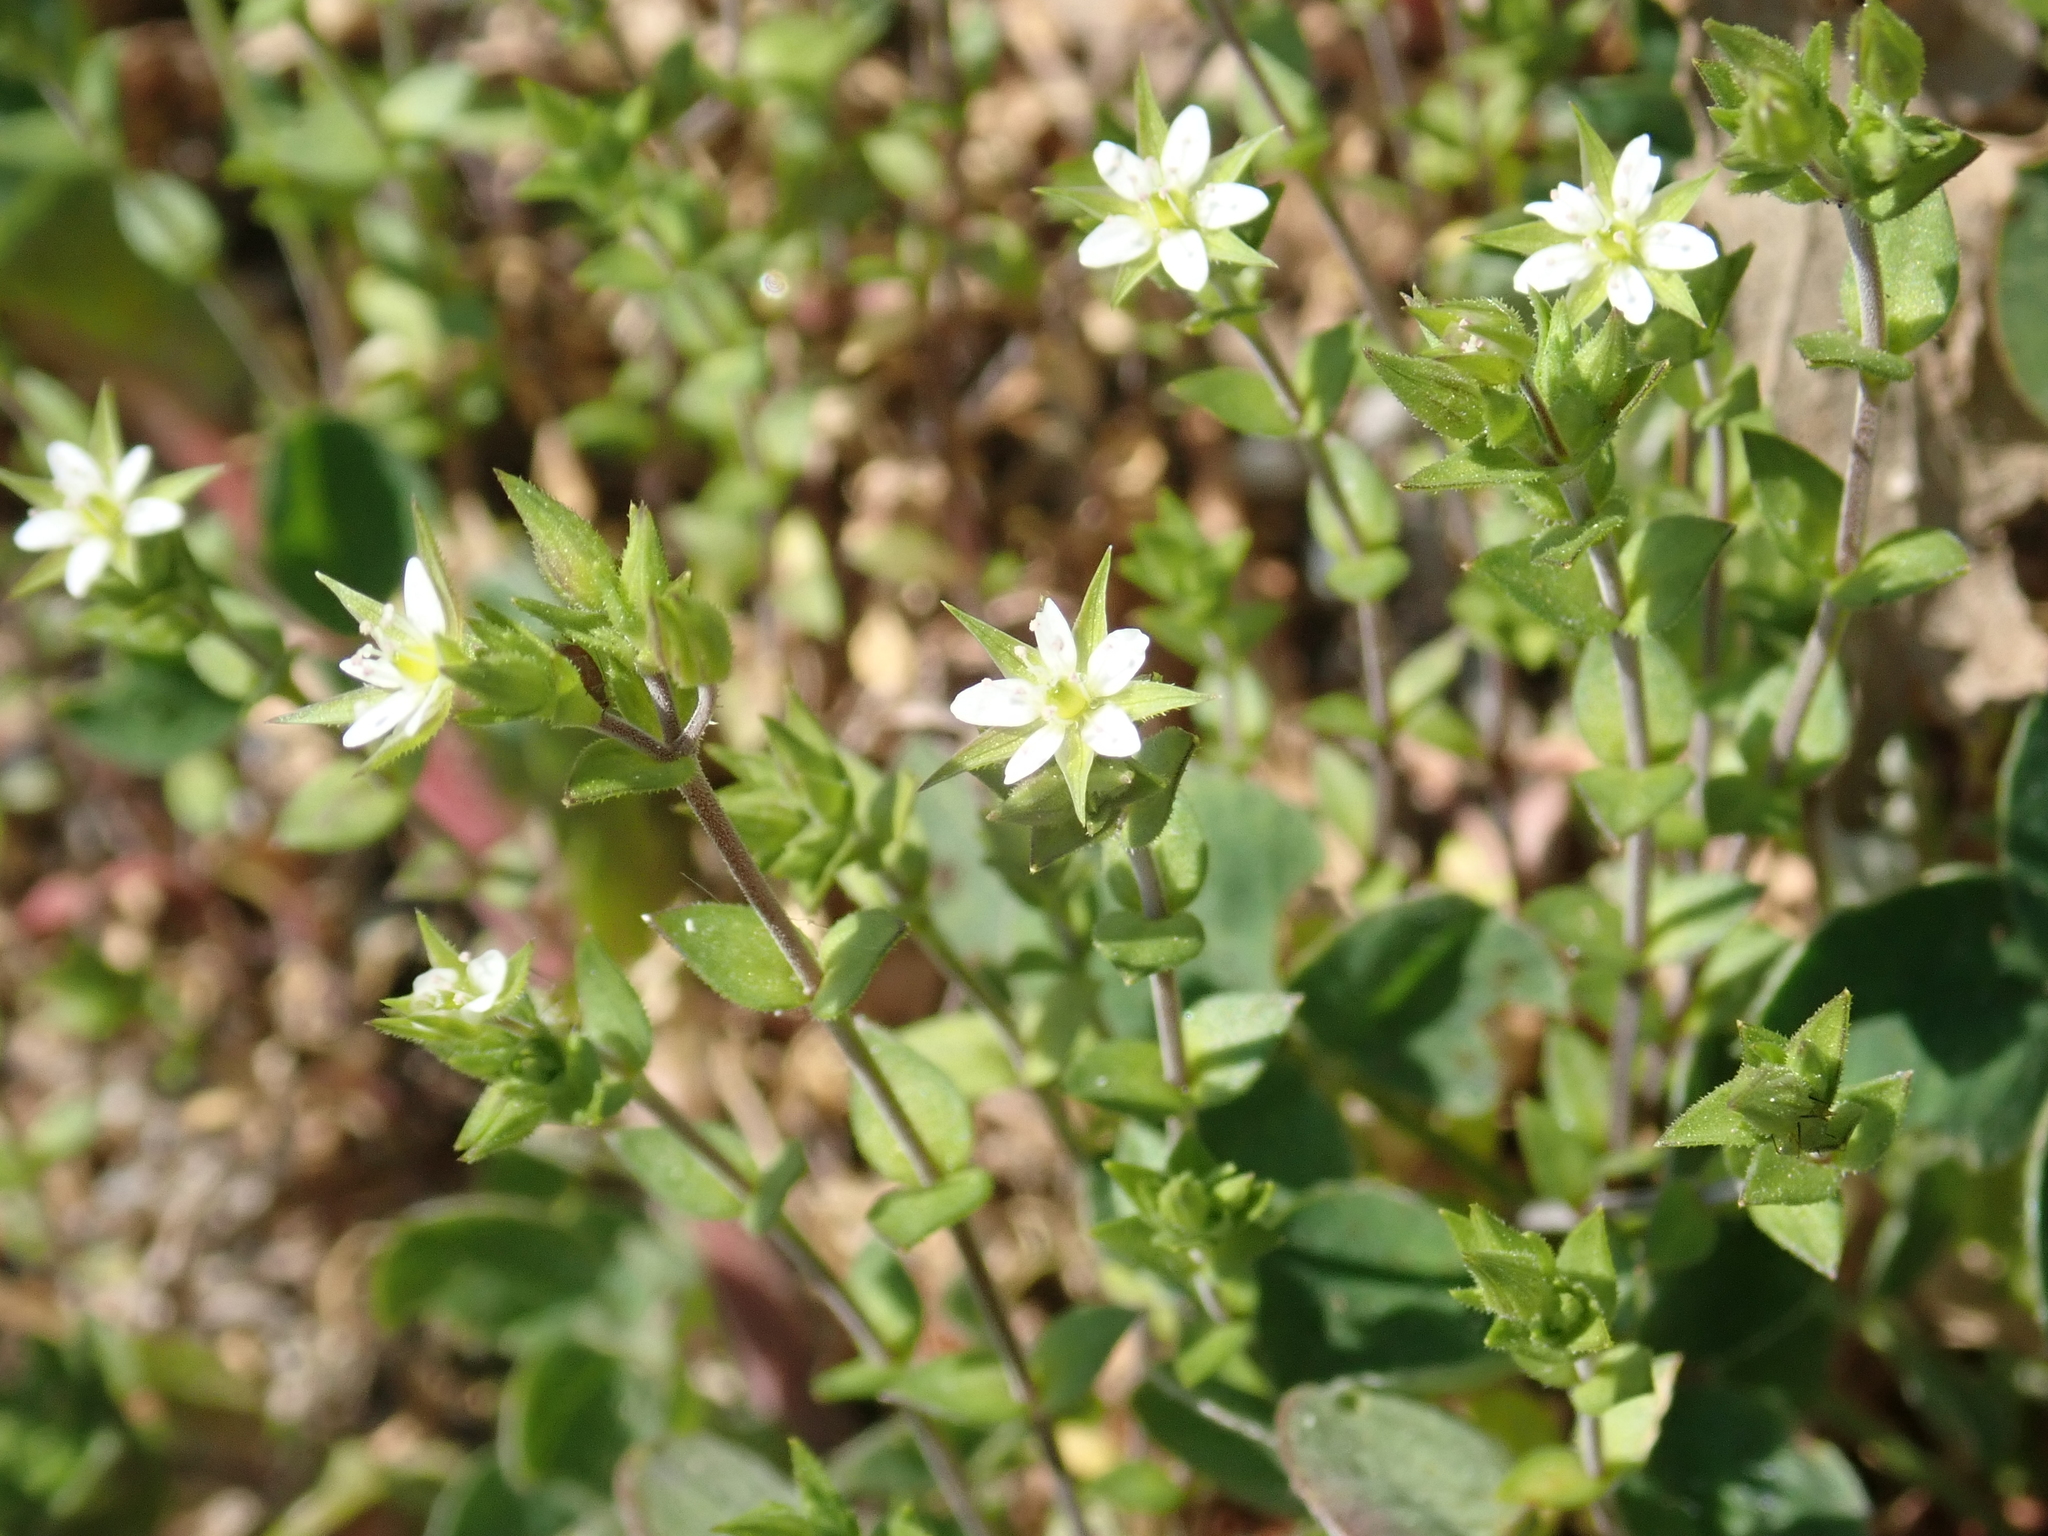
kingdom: Plantae
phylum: Tracheophyta
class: Magnoliopsida
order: Caryophyllales
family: Caryophyllaceae
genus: Arenaria
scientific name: Arenaria serpyllifolia
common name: Thyme-leaved sandwort
